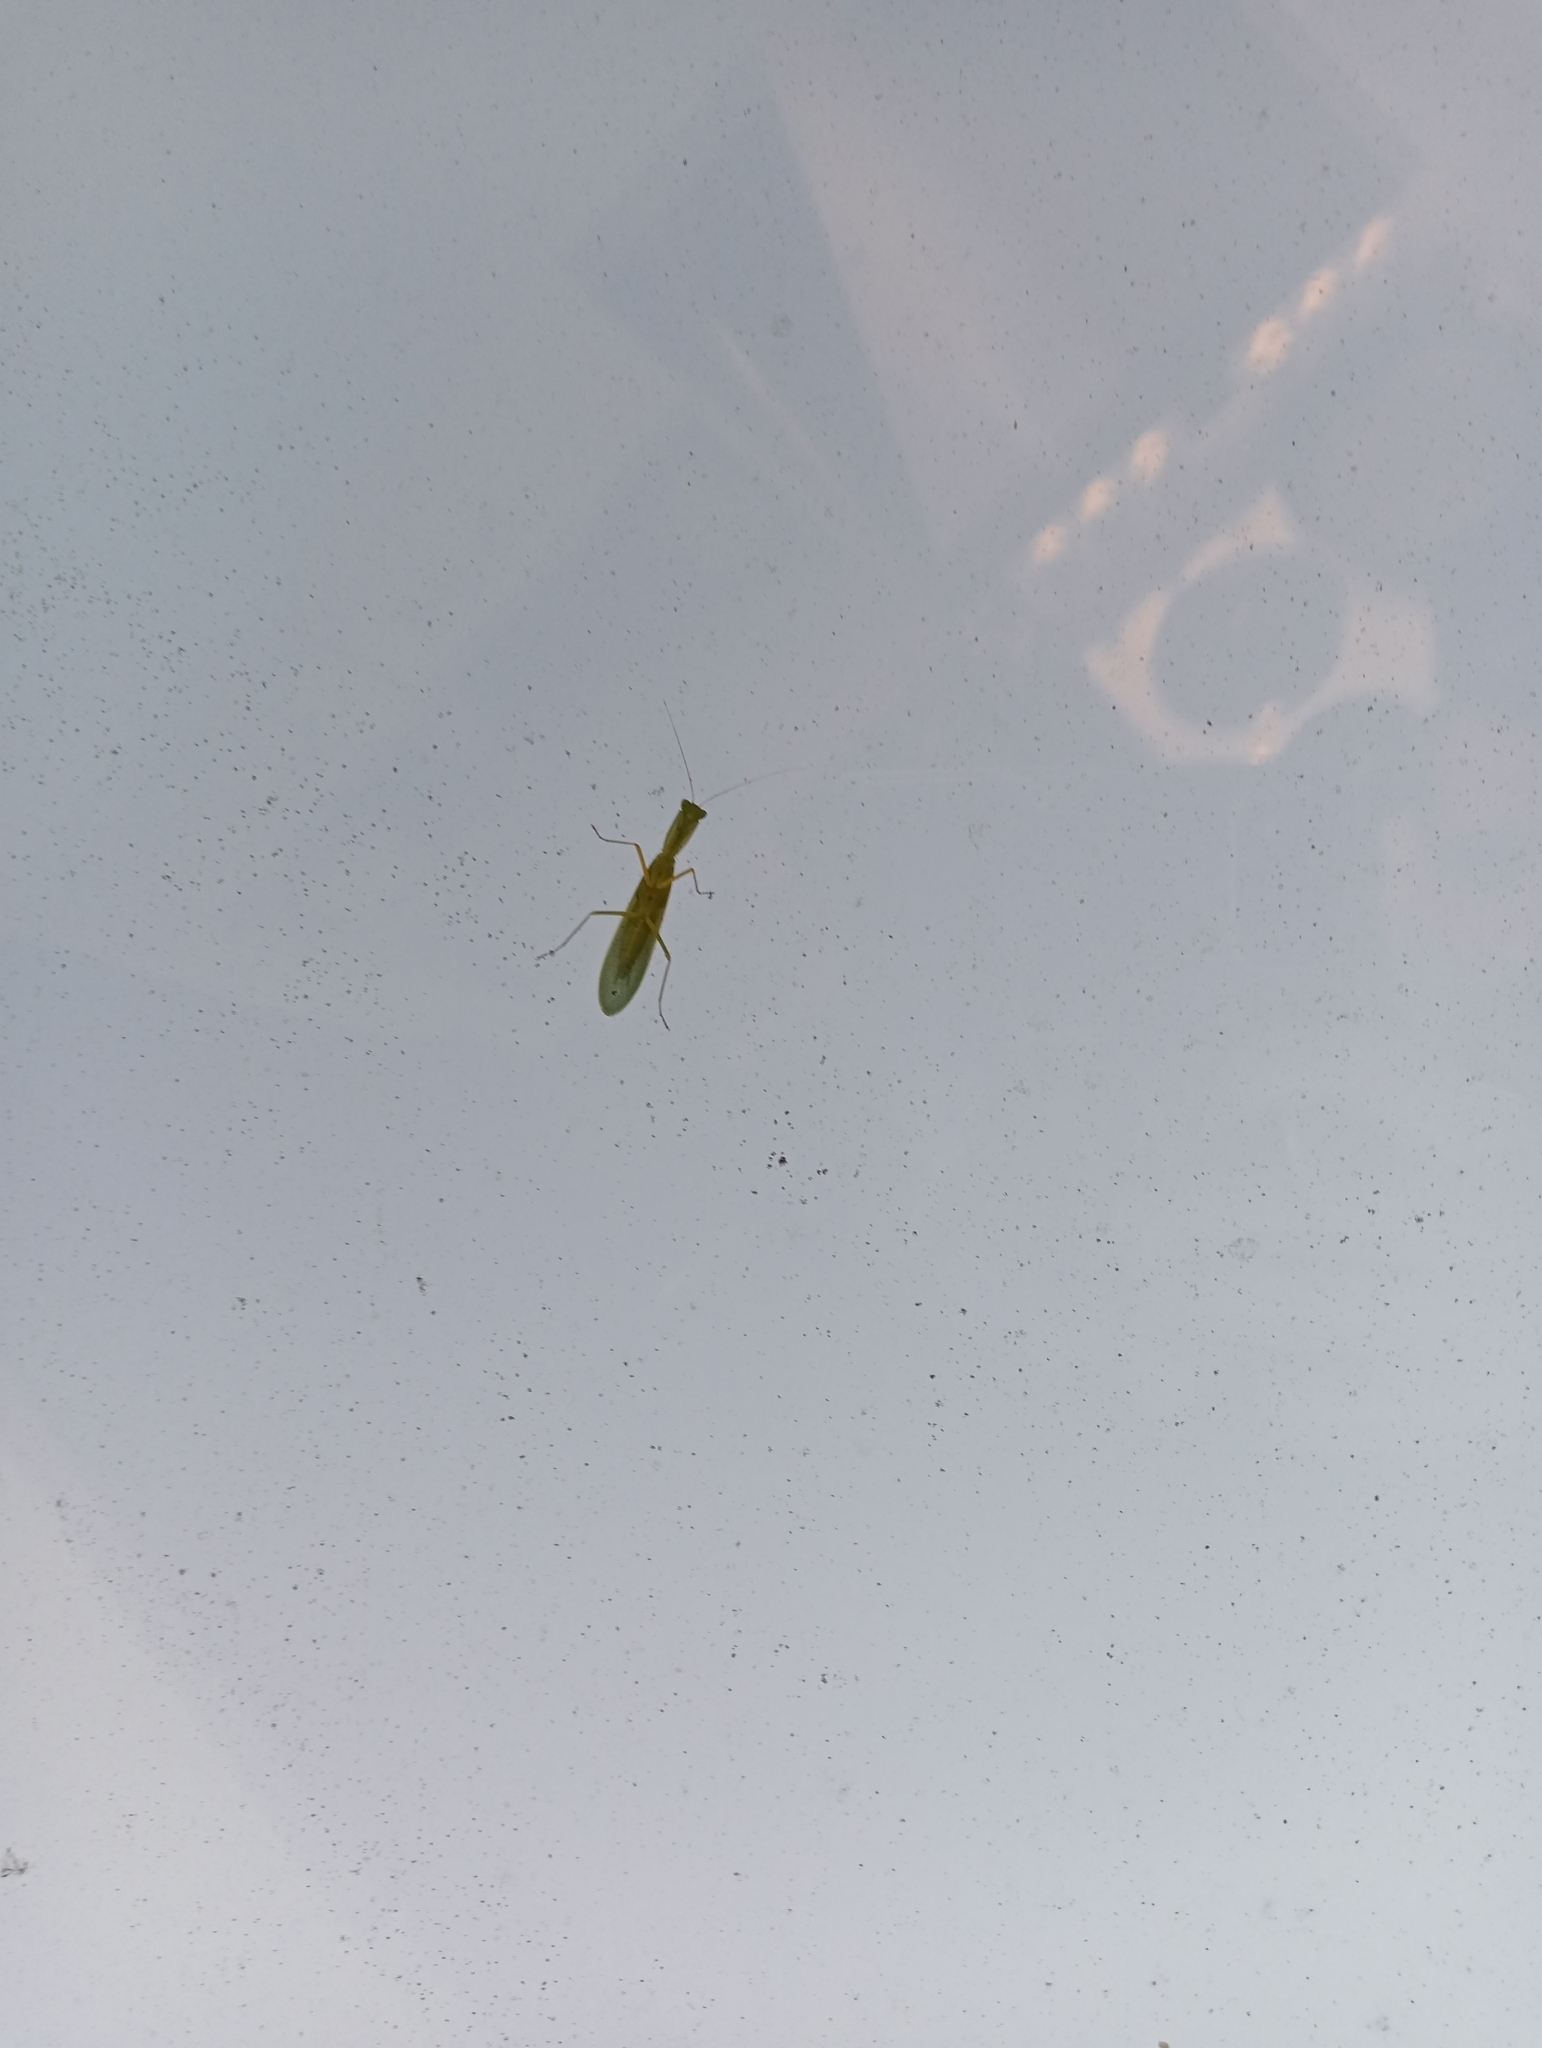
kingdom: Animalia
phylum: Arthropoda
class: Insecta
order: Mantodea
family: Mantidae
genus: Orthodera
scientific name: Orthodera novaezealandiae
